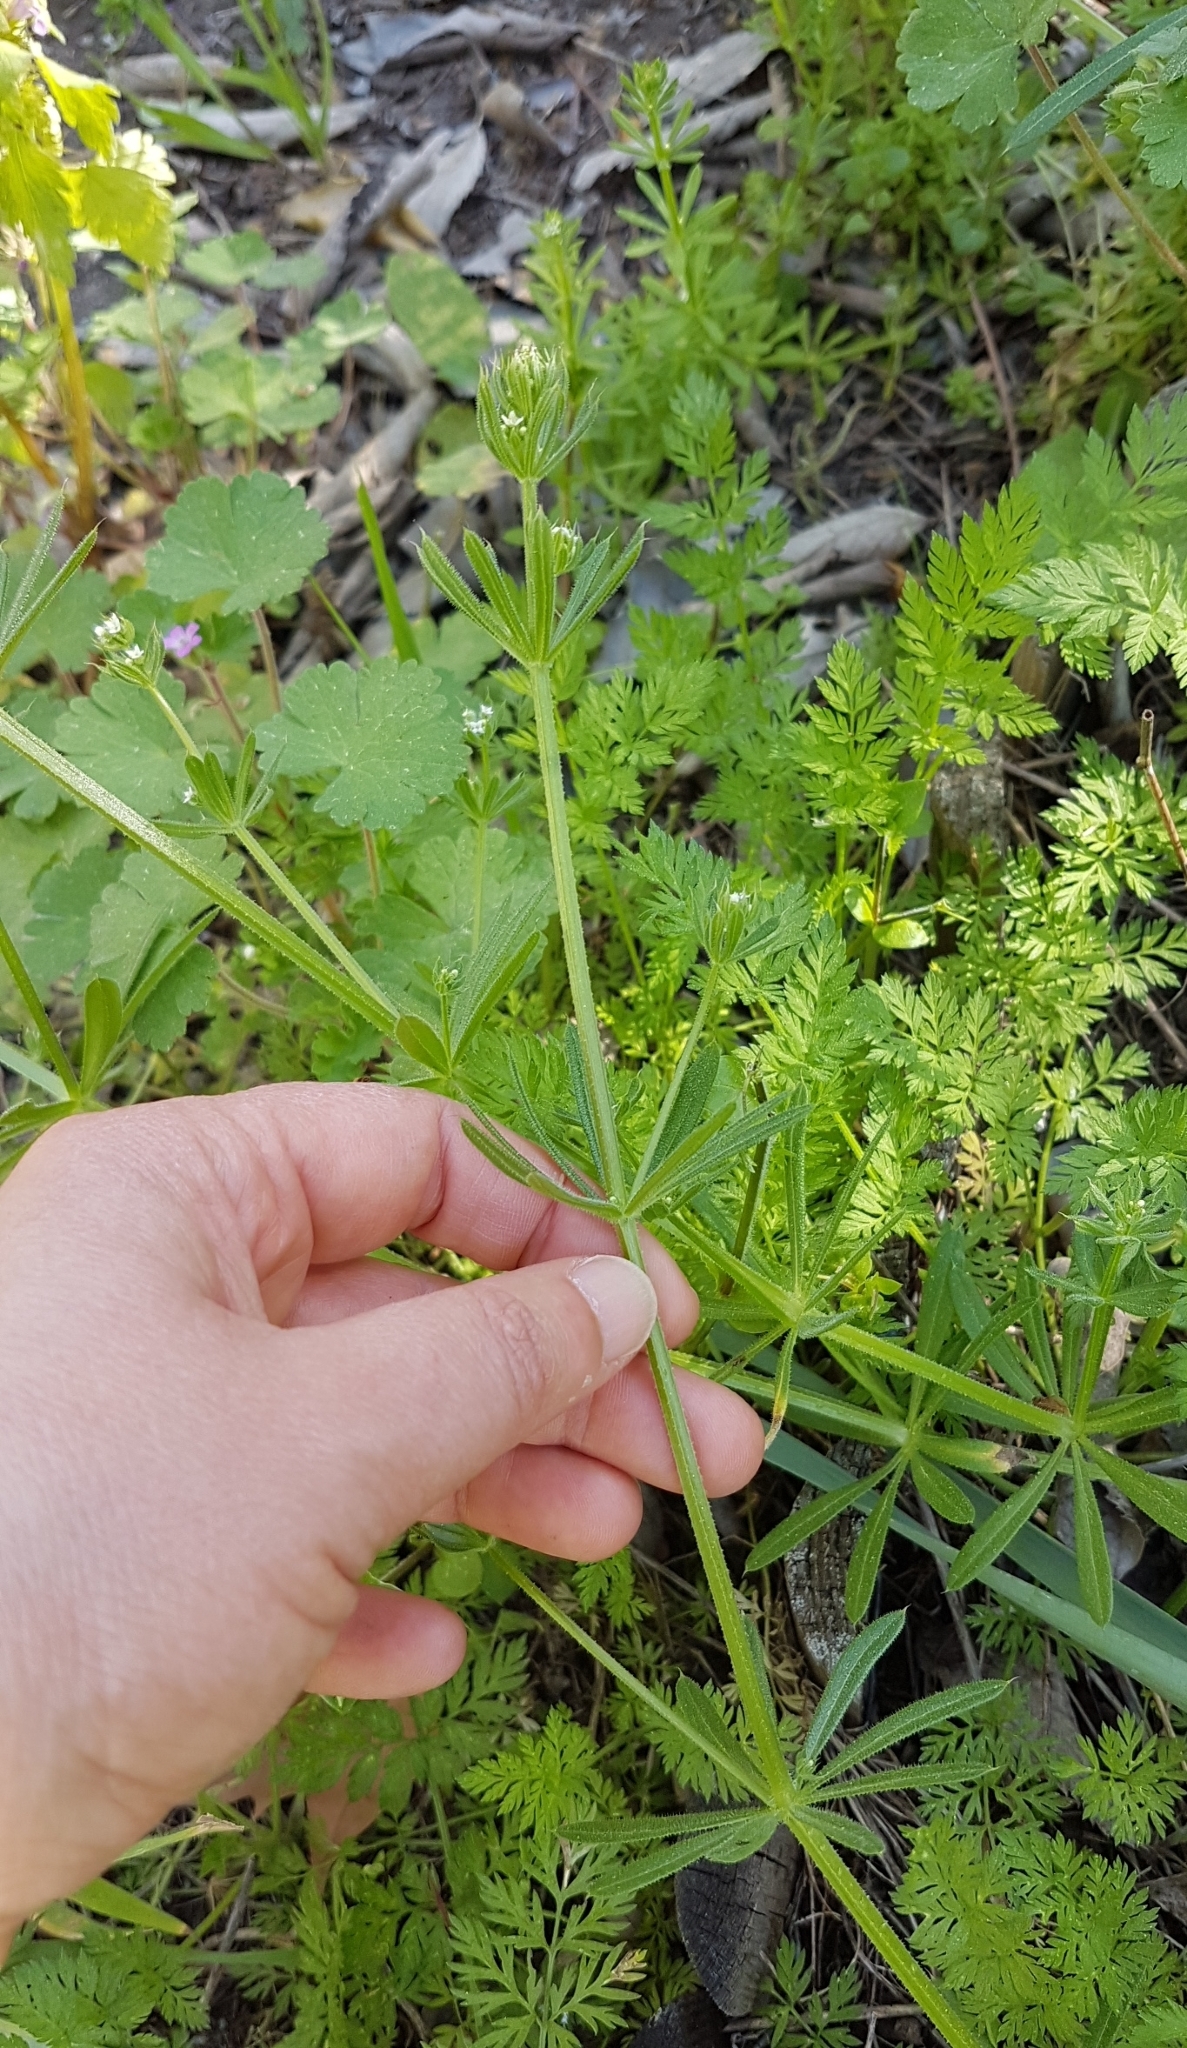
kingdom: Plantae
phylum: Tracheophyta
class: Magnoliopsida
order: Gentianales
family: Rubiaceae
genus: Galium
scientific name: Galium aparine
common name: Cleavers
